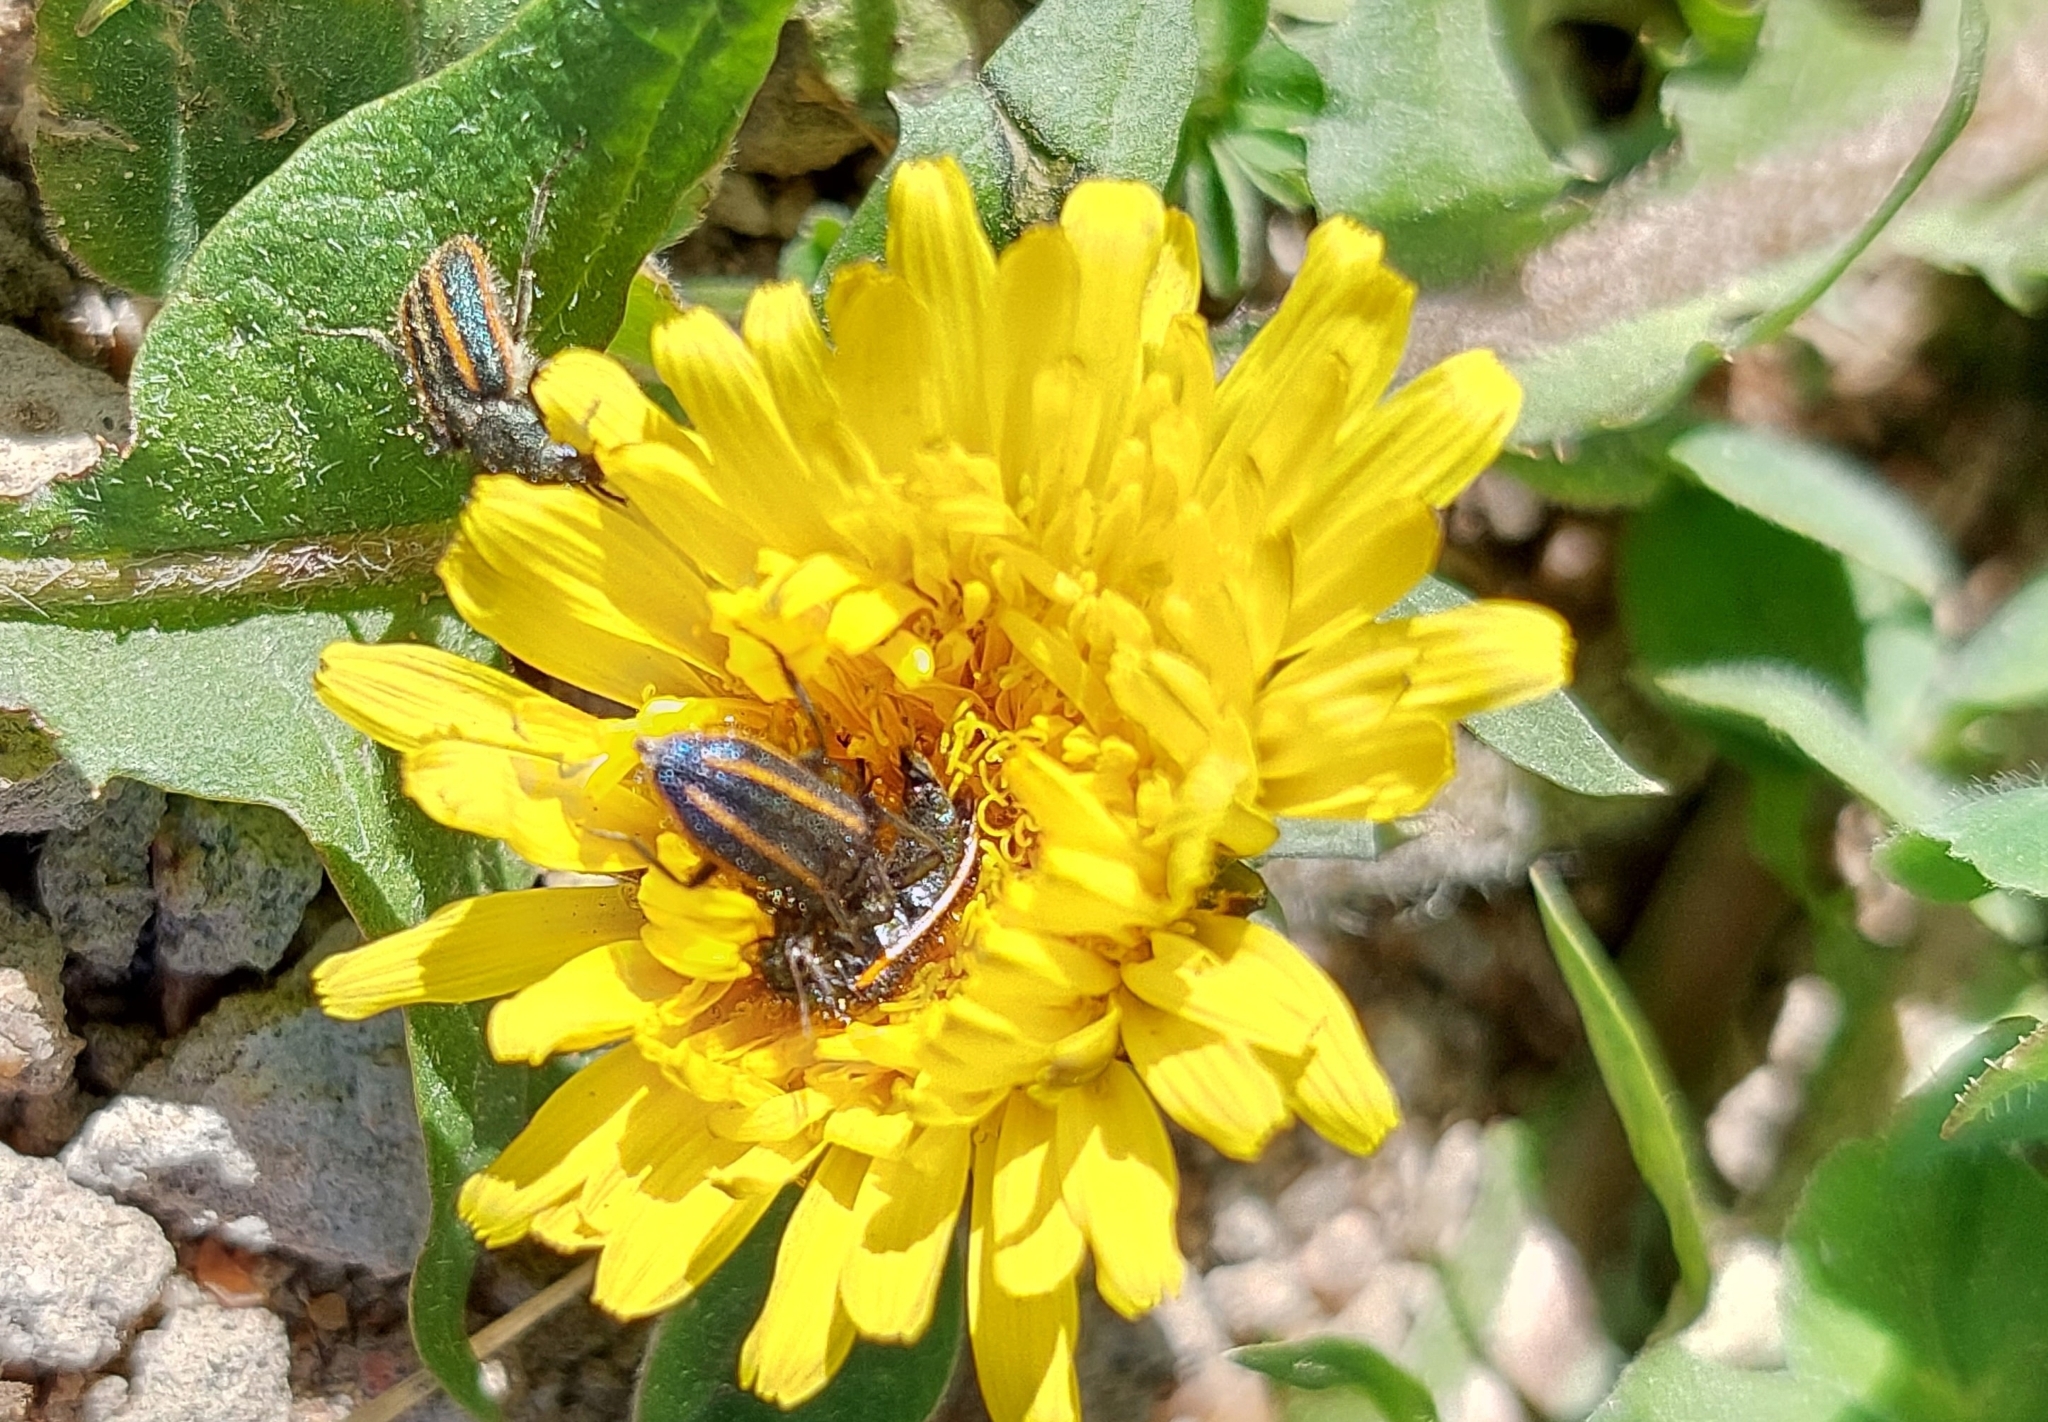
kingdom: Animalia
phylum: Arthropoda
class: Insecta
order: Coleoptera
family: Melyridae
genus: Astylus
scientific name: Astylus
